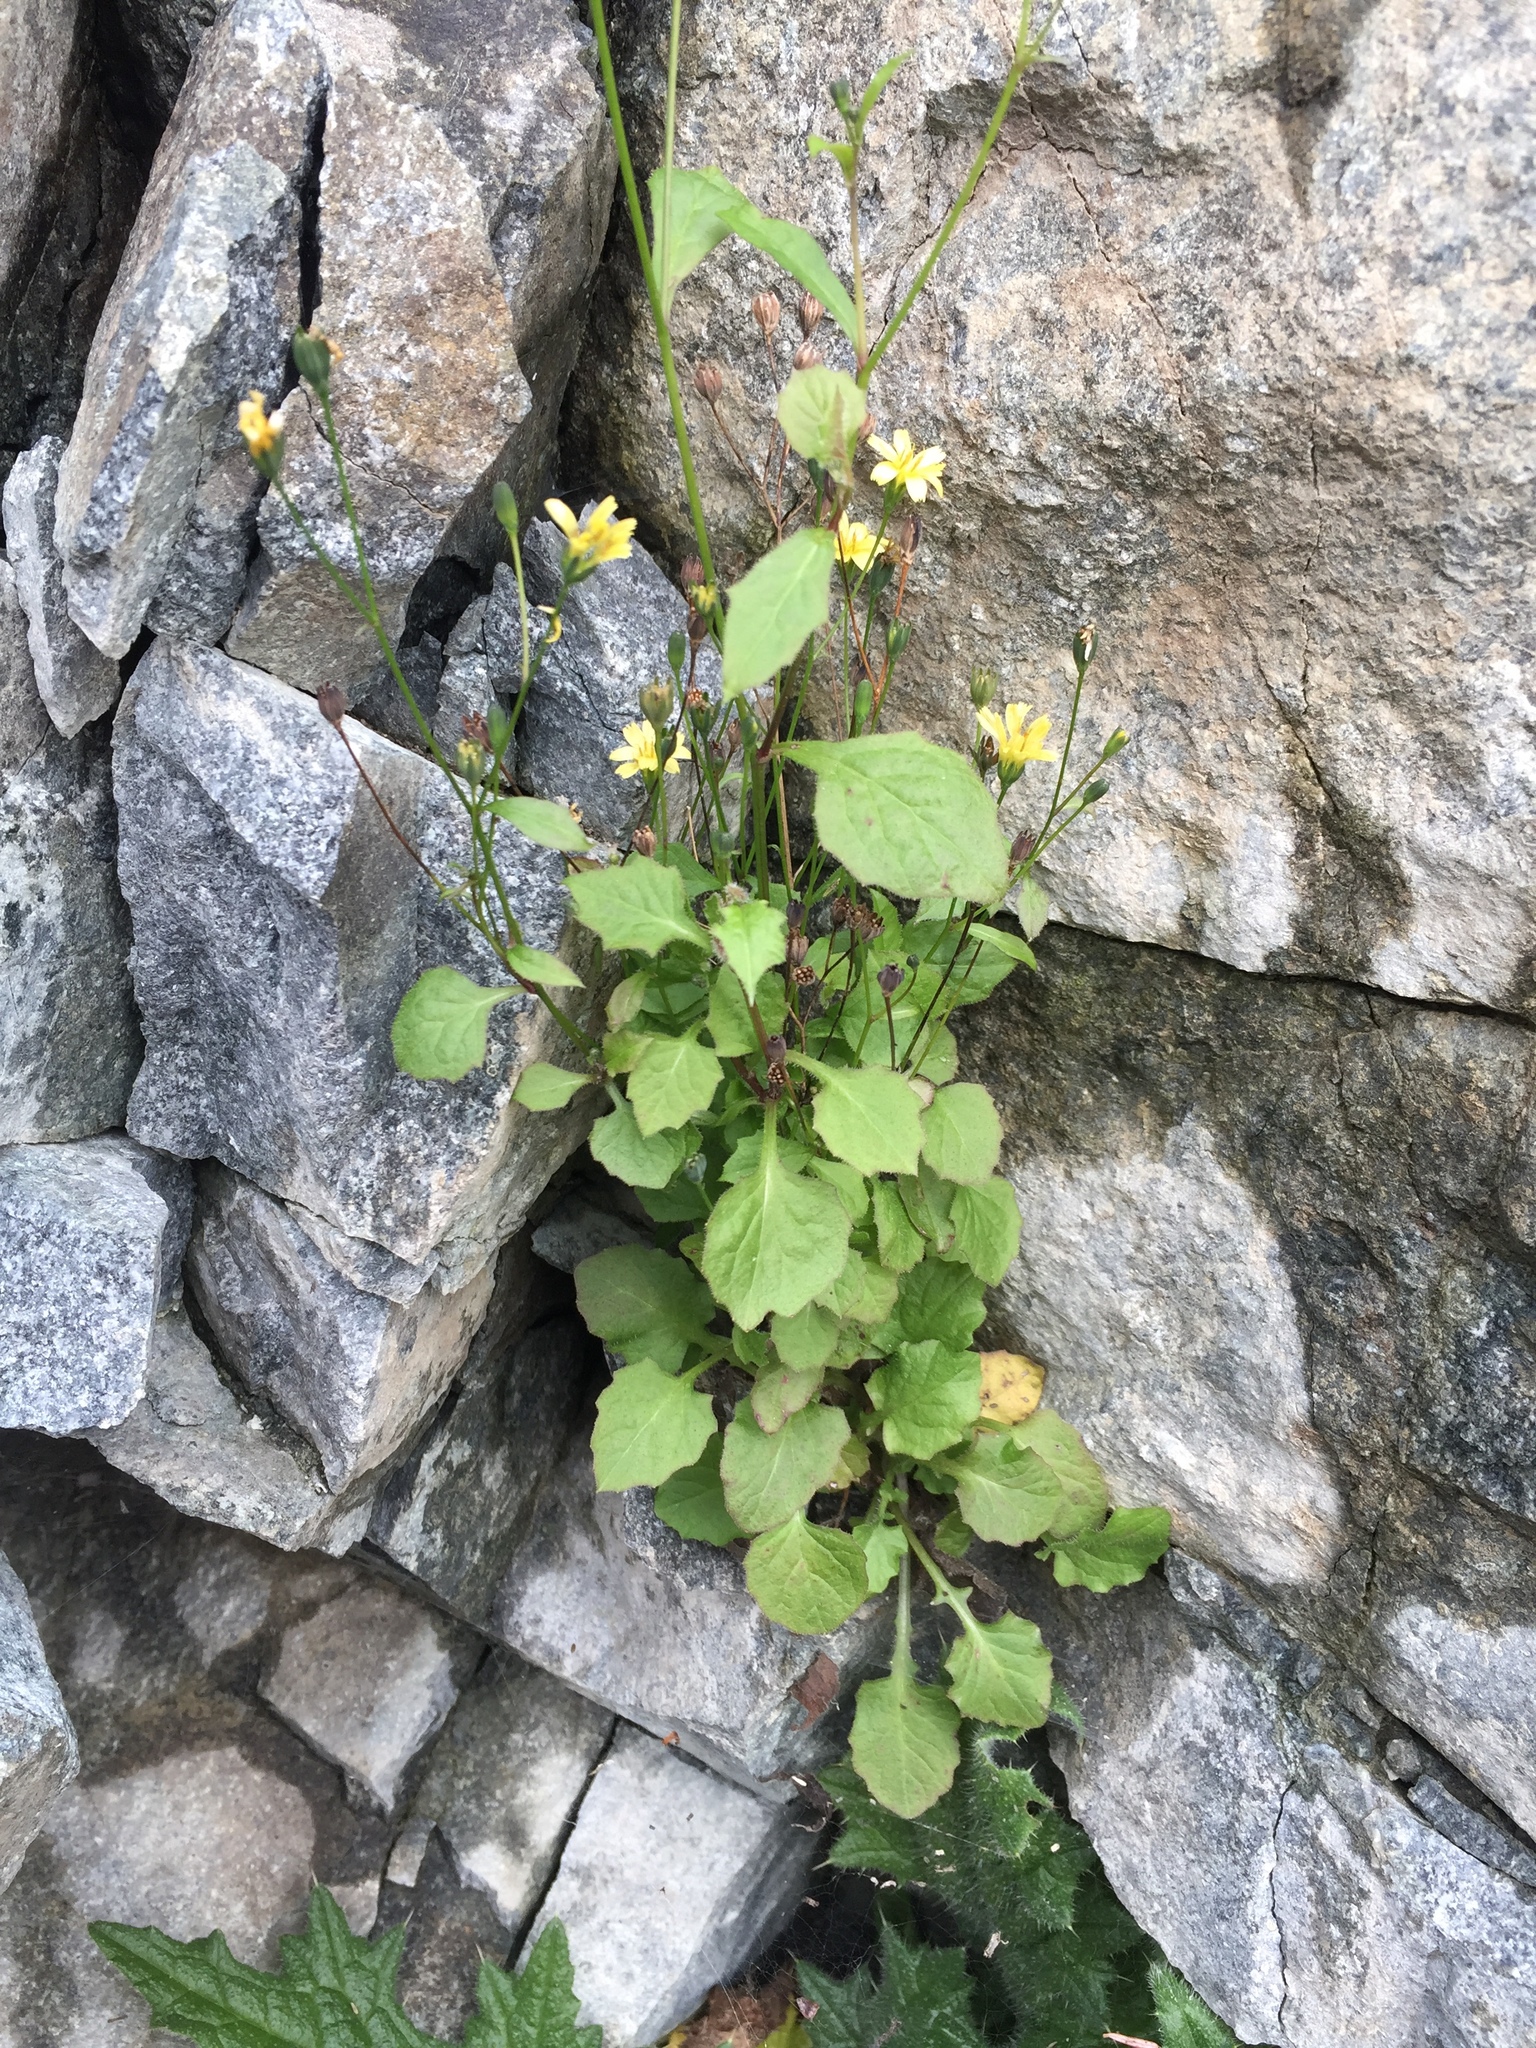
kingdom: Plantae
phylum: Tracheophyta
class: Magnoliopsida
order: Asterales
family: Asteraceae
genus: Lapsana
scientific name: Lapsana communis
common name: Nipplewort
